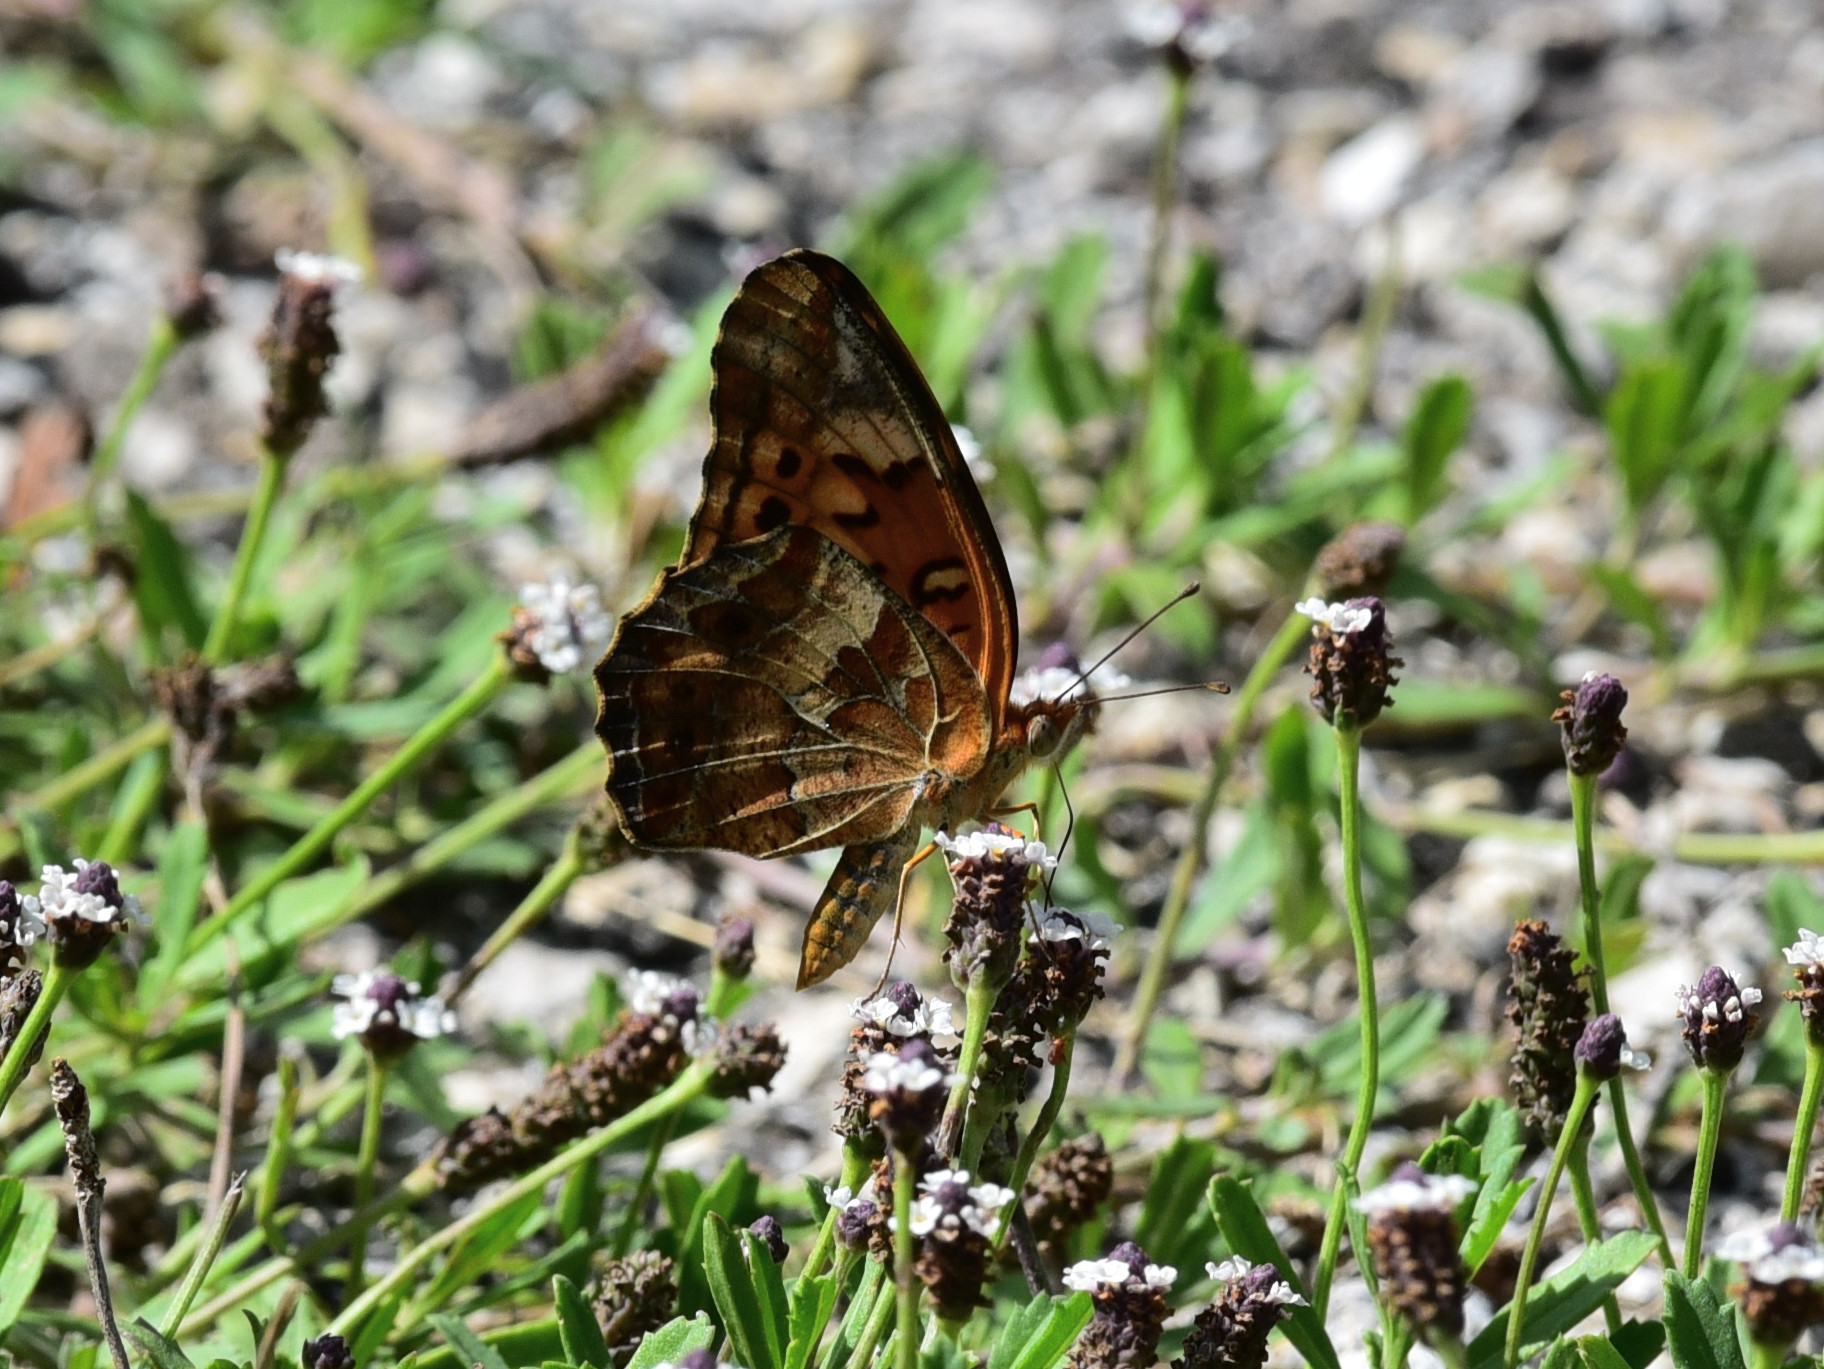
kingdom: Animalia
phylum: Arthropoda
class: Insecta
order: Lepidoptera
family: Nymphalidae
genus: Euptoieta
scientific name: Euptoieta claudia
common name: Variegated fritillary
